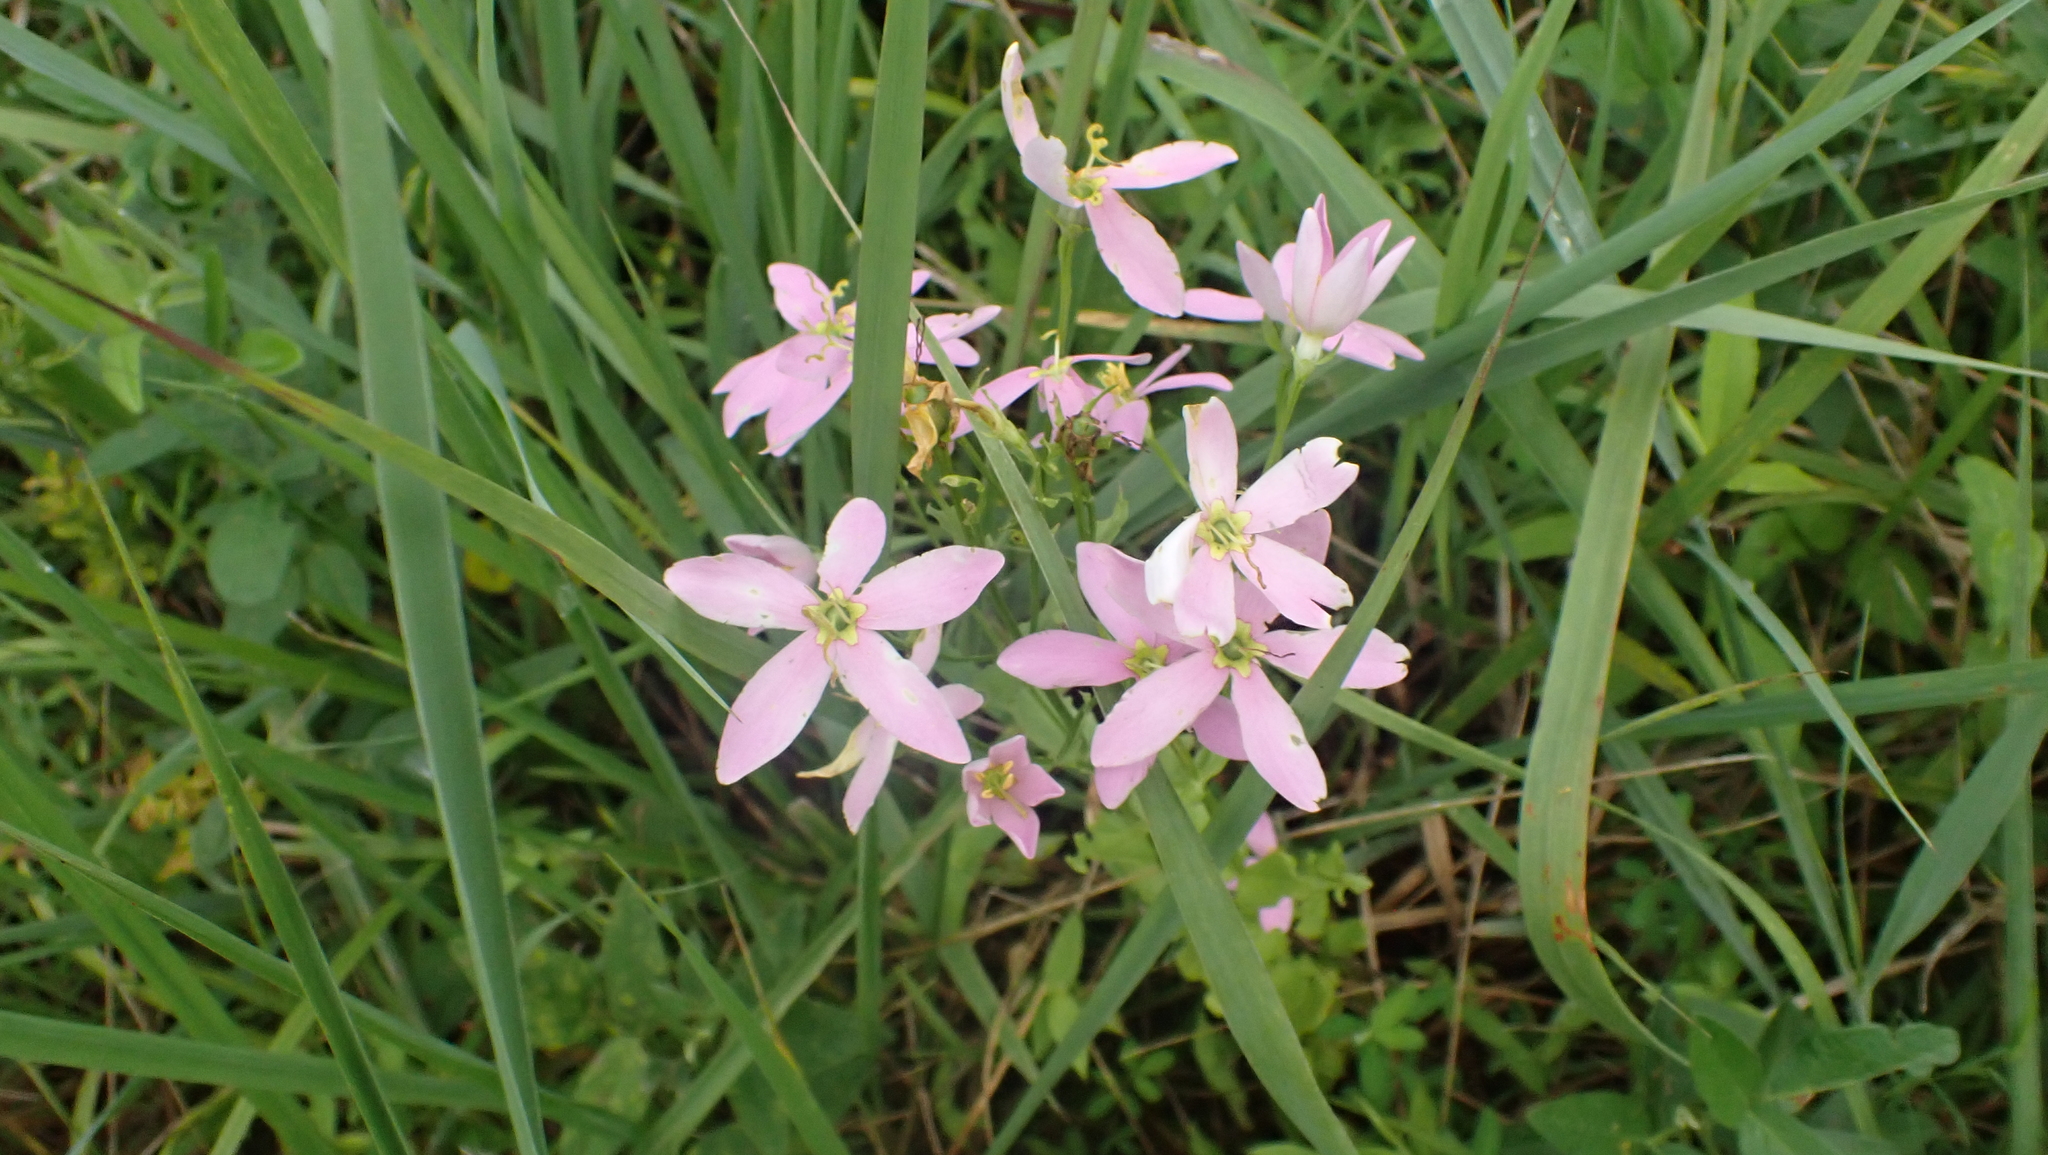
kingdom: Plantae
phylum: Tracheophyta
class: Magnoliopsida
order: Gentianales
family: Gentianaceae
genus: Sabatia
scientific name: Sabatia angularis
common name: Rose-pink
